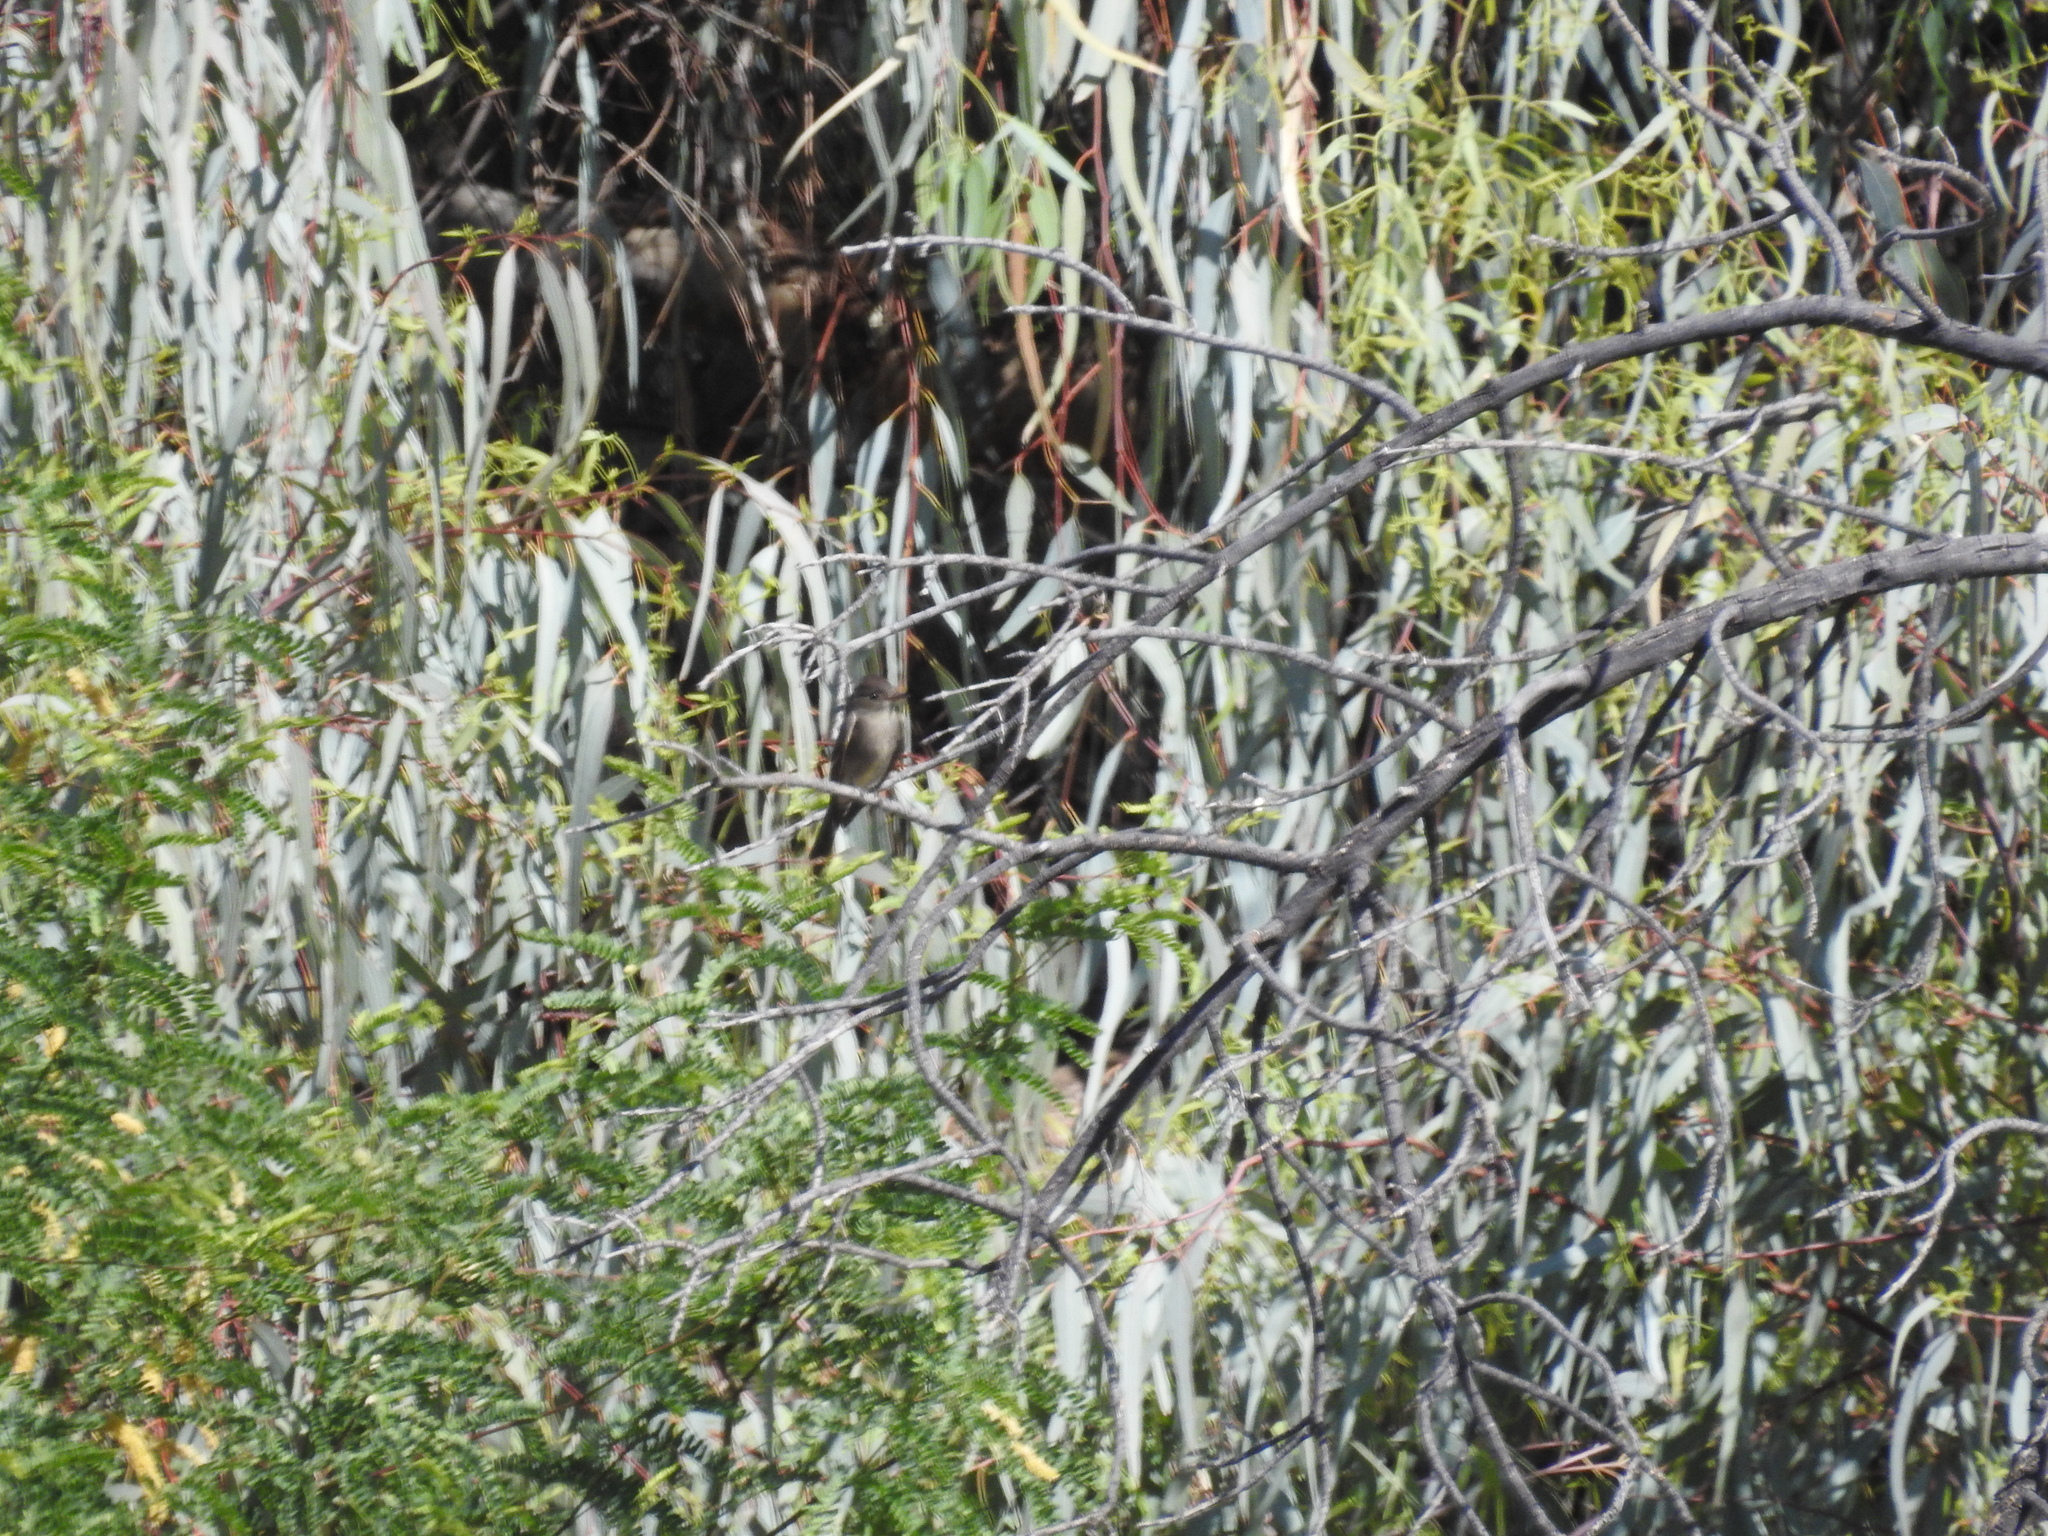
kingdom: Animalia
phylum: Chordata
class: Aves
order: Passeriformes
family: Tyrannidae
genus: Contopus
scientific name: Contopus sordidulus
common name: Western wood-pewee
